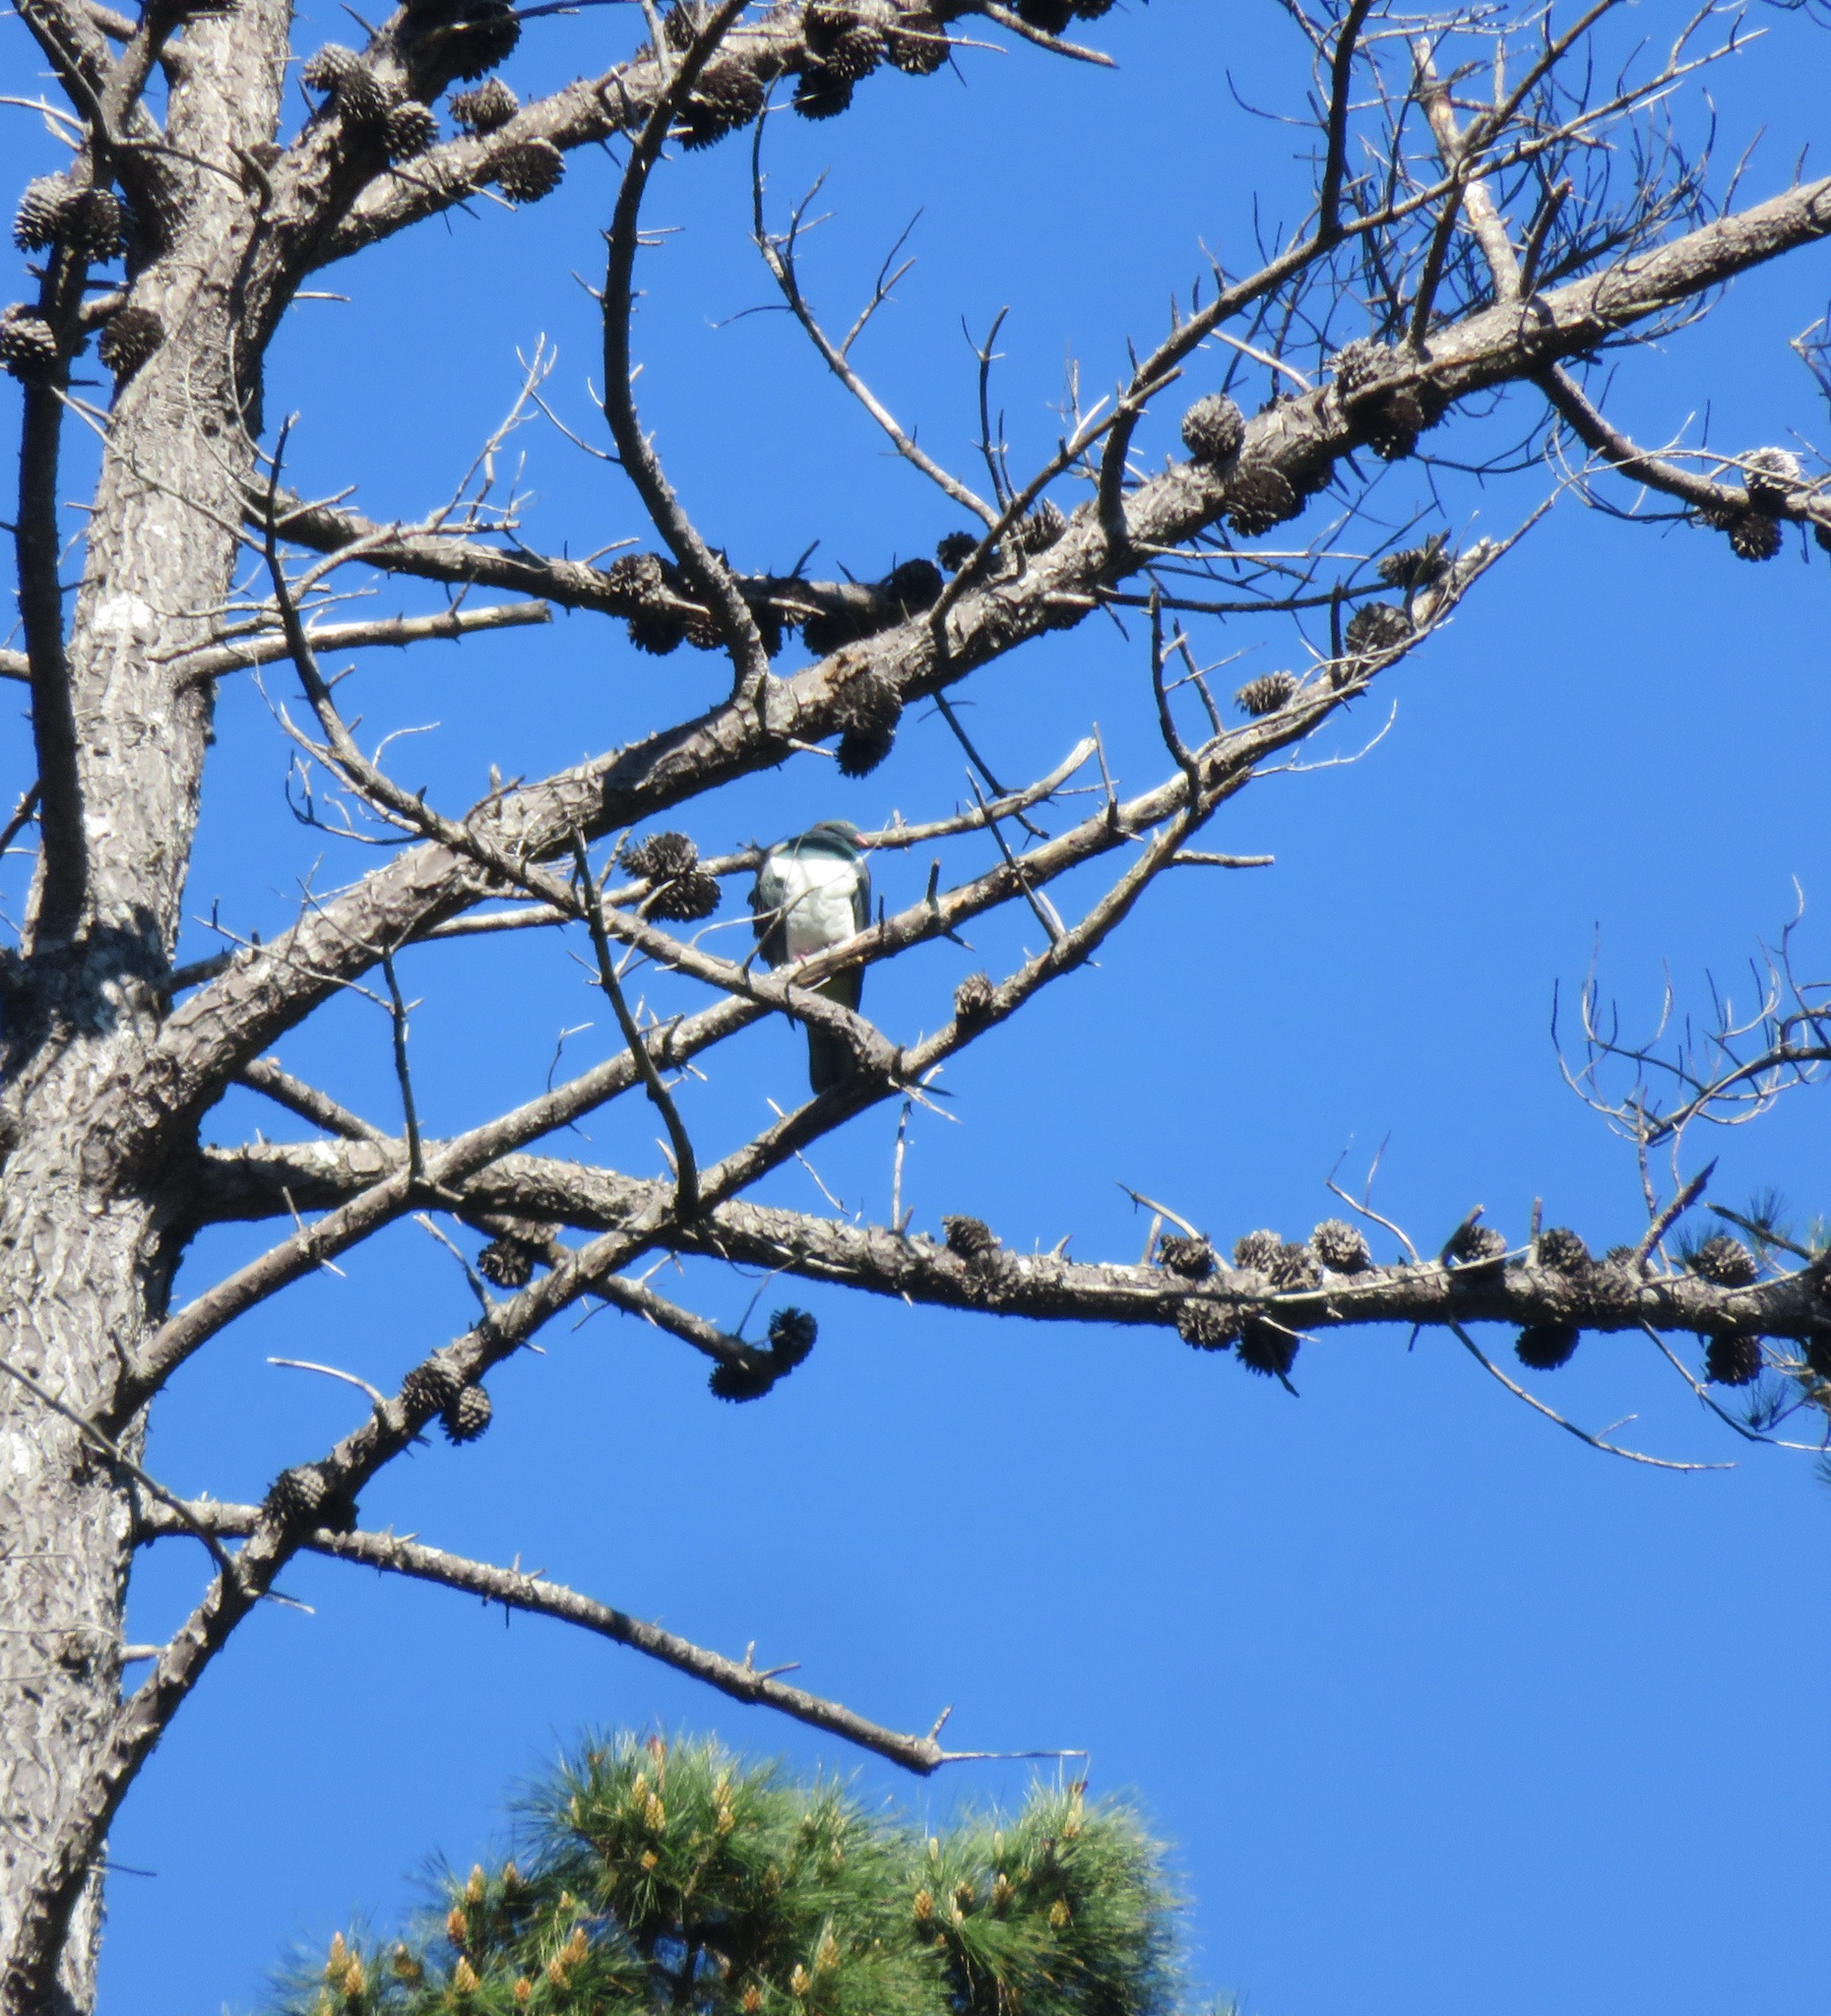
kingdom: Animalia
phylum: Chordata
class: Aves
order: Columbiformes
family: Columbidae
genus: Hemiphaga
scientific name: Hemiphaga novaeseelandiae
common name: New zealand pigeon
